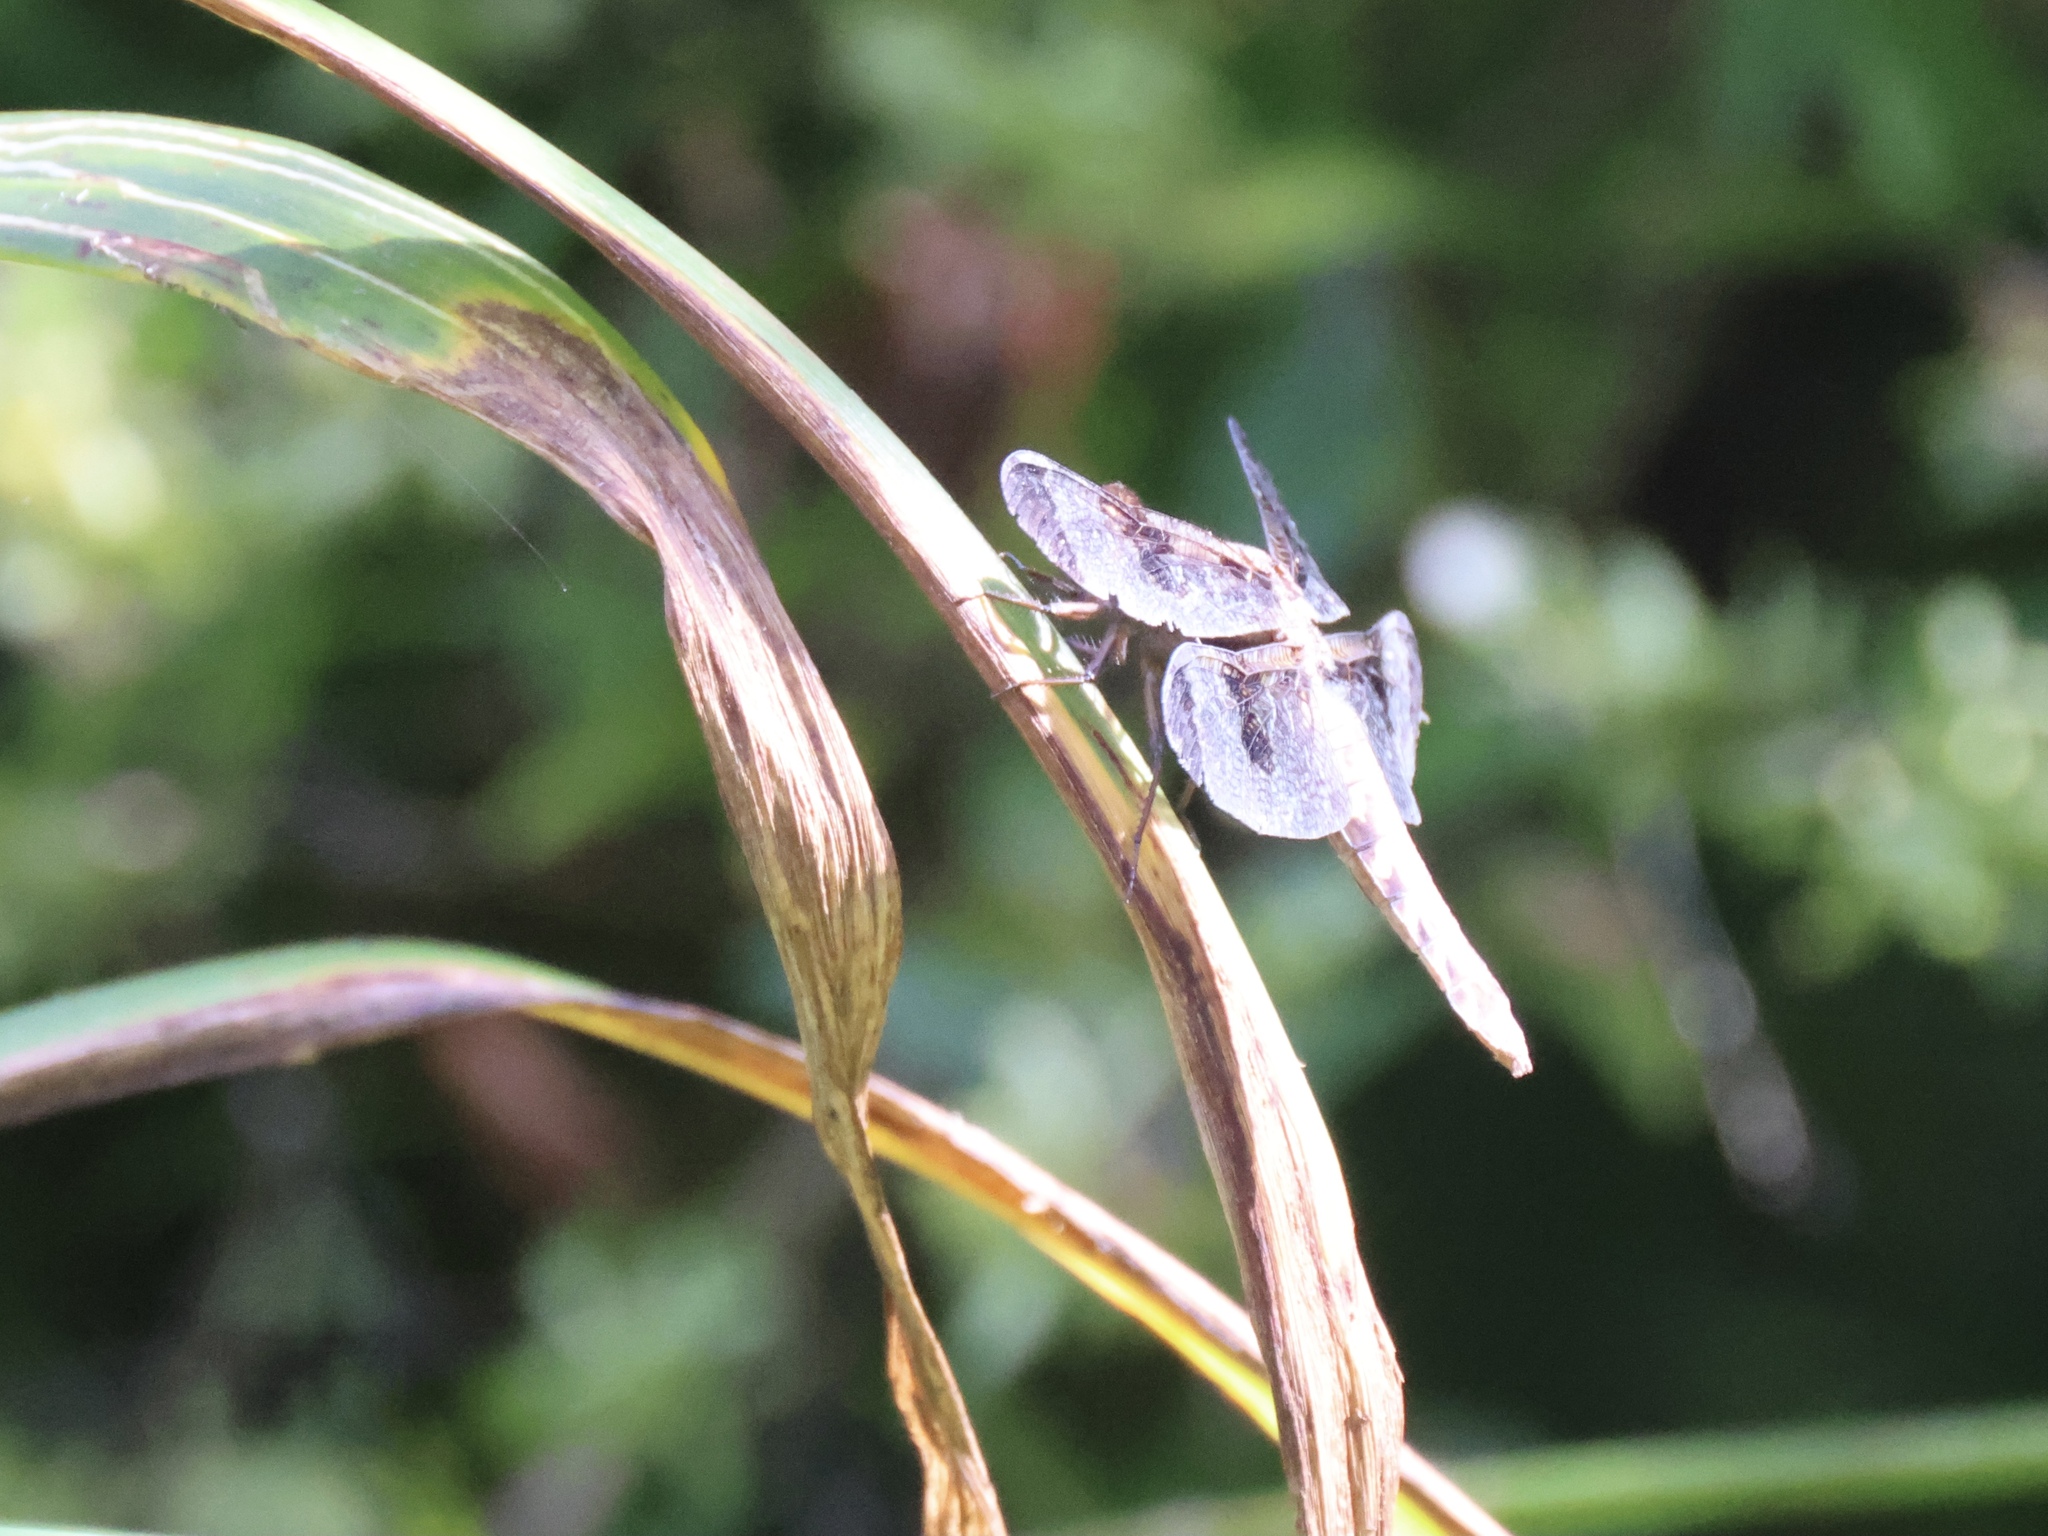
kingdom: Animalia
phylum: Arthropoda
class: Insecta
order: Odonata
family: Libellulidae
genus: Libellula
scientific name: Libellula luctuosa
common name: Widow skimmer
